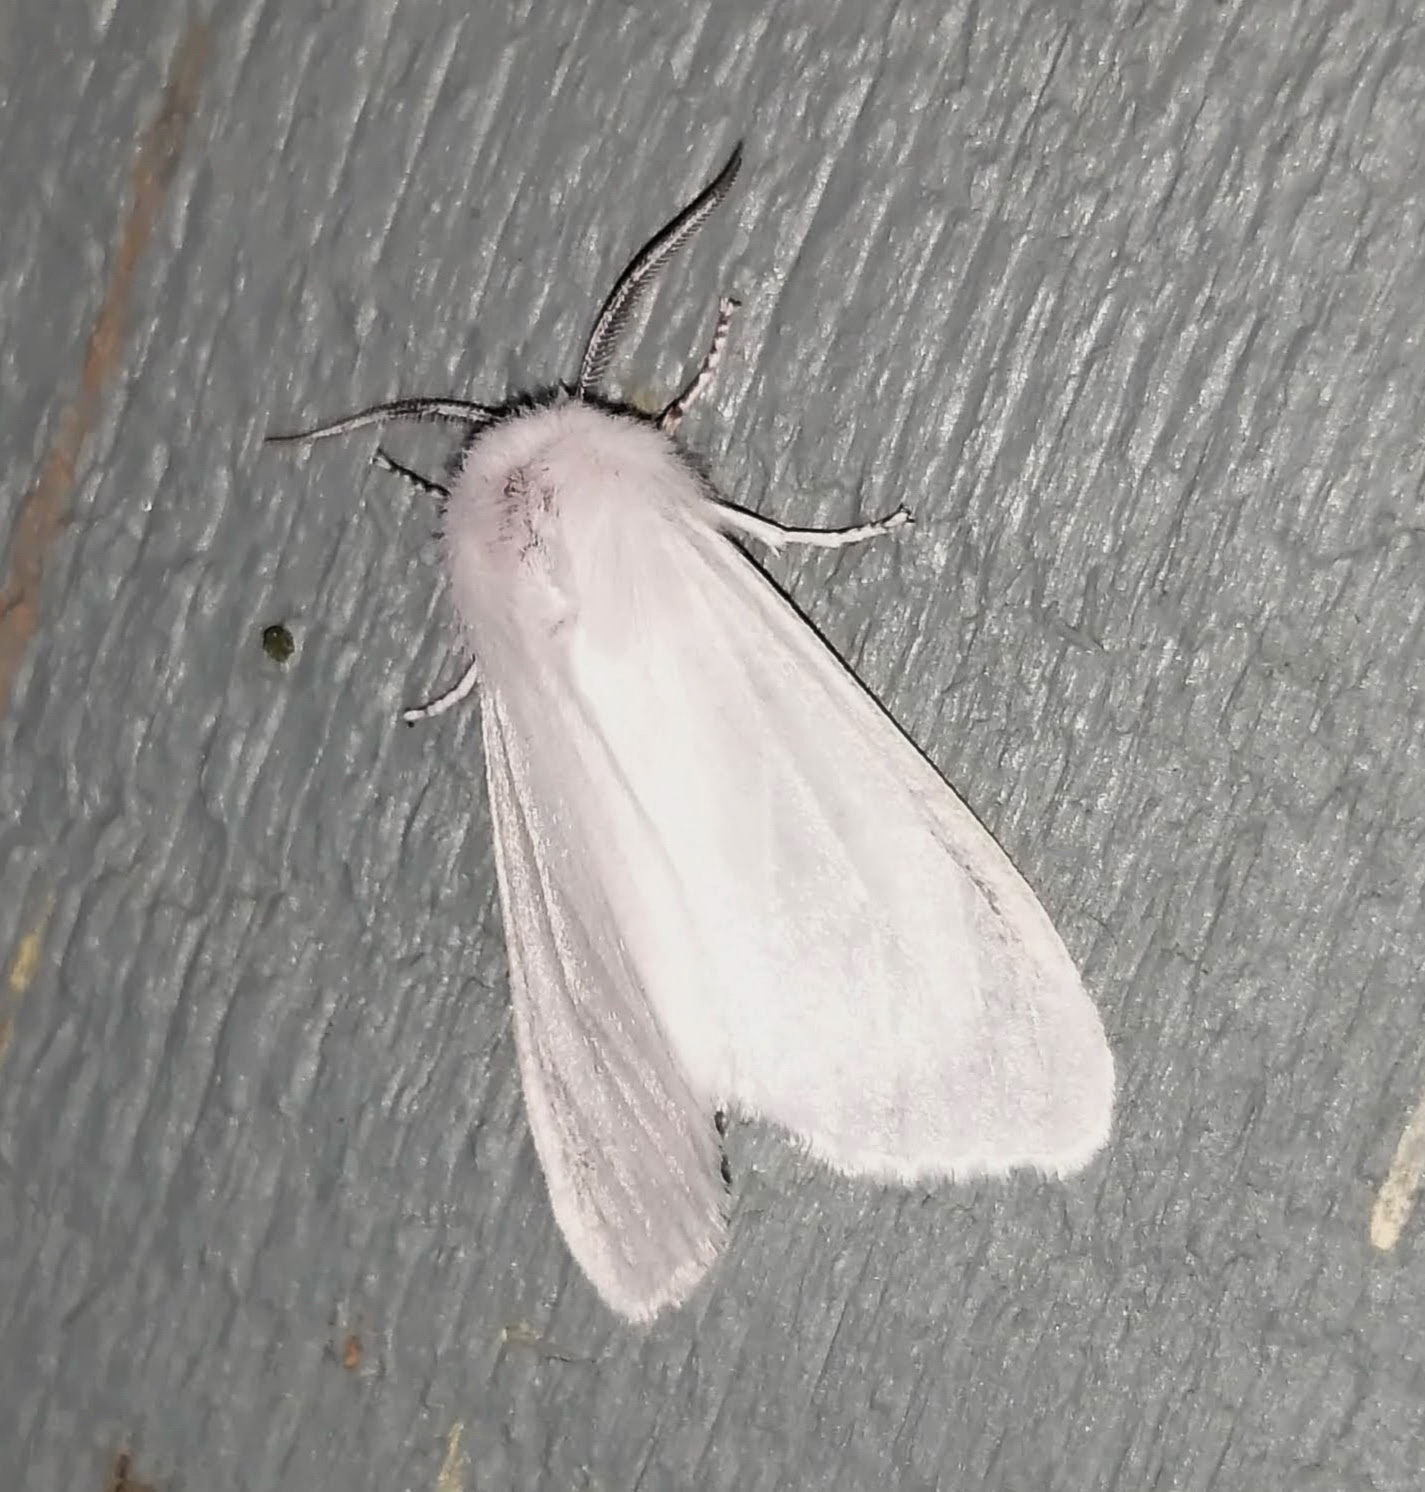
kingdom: Animalia
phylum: Arthropoda
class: Insecta
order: Lepidoptera
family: Erebidae
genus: Hyphantria
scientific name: Hyphantria cunea
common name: American white moth
